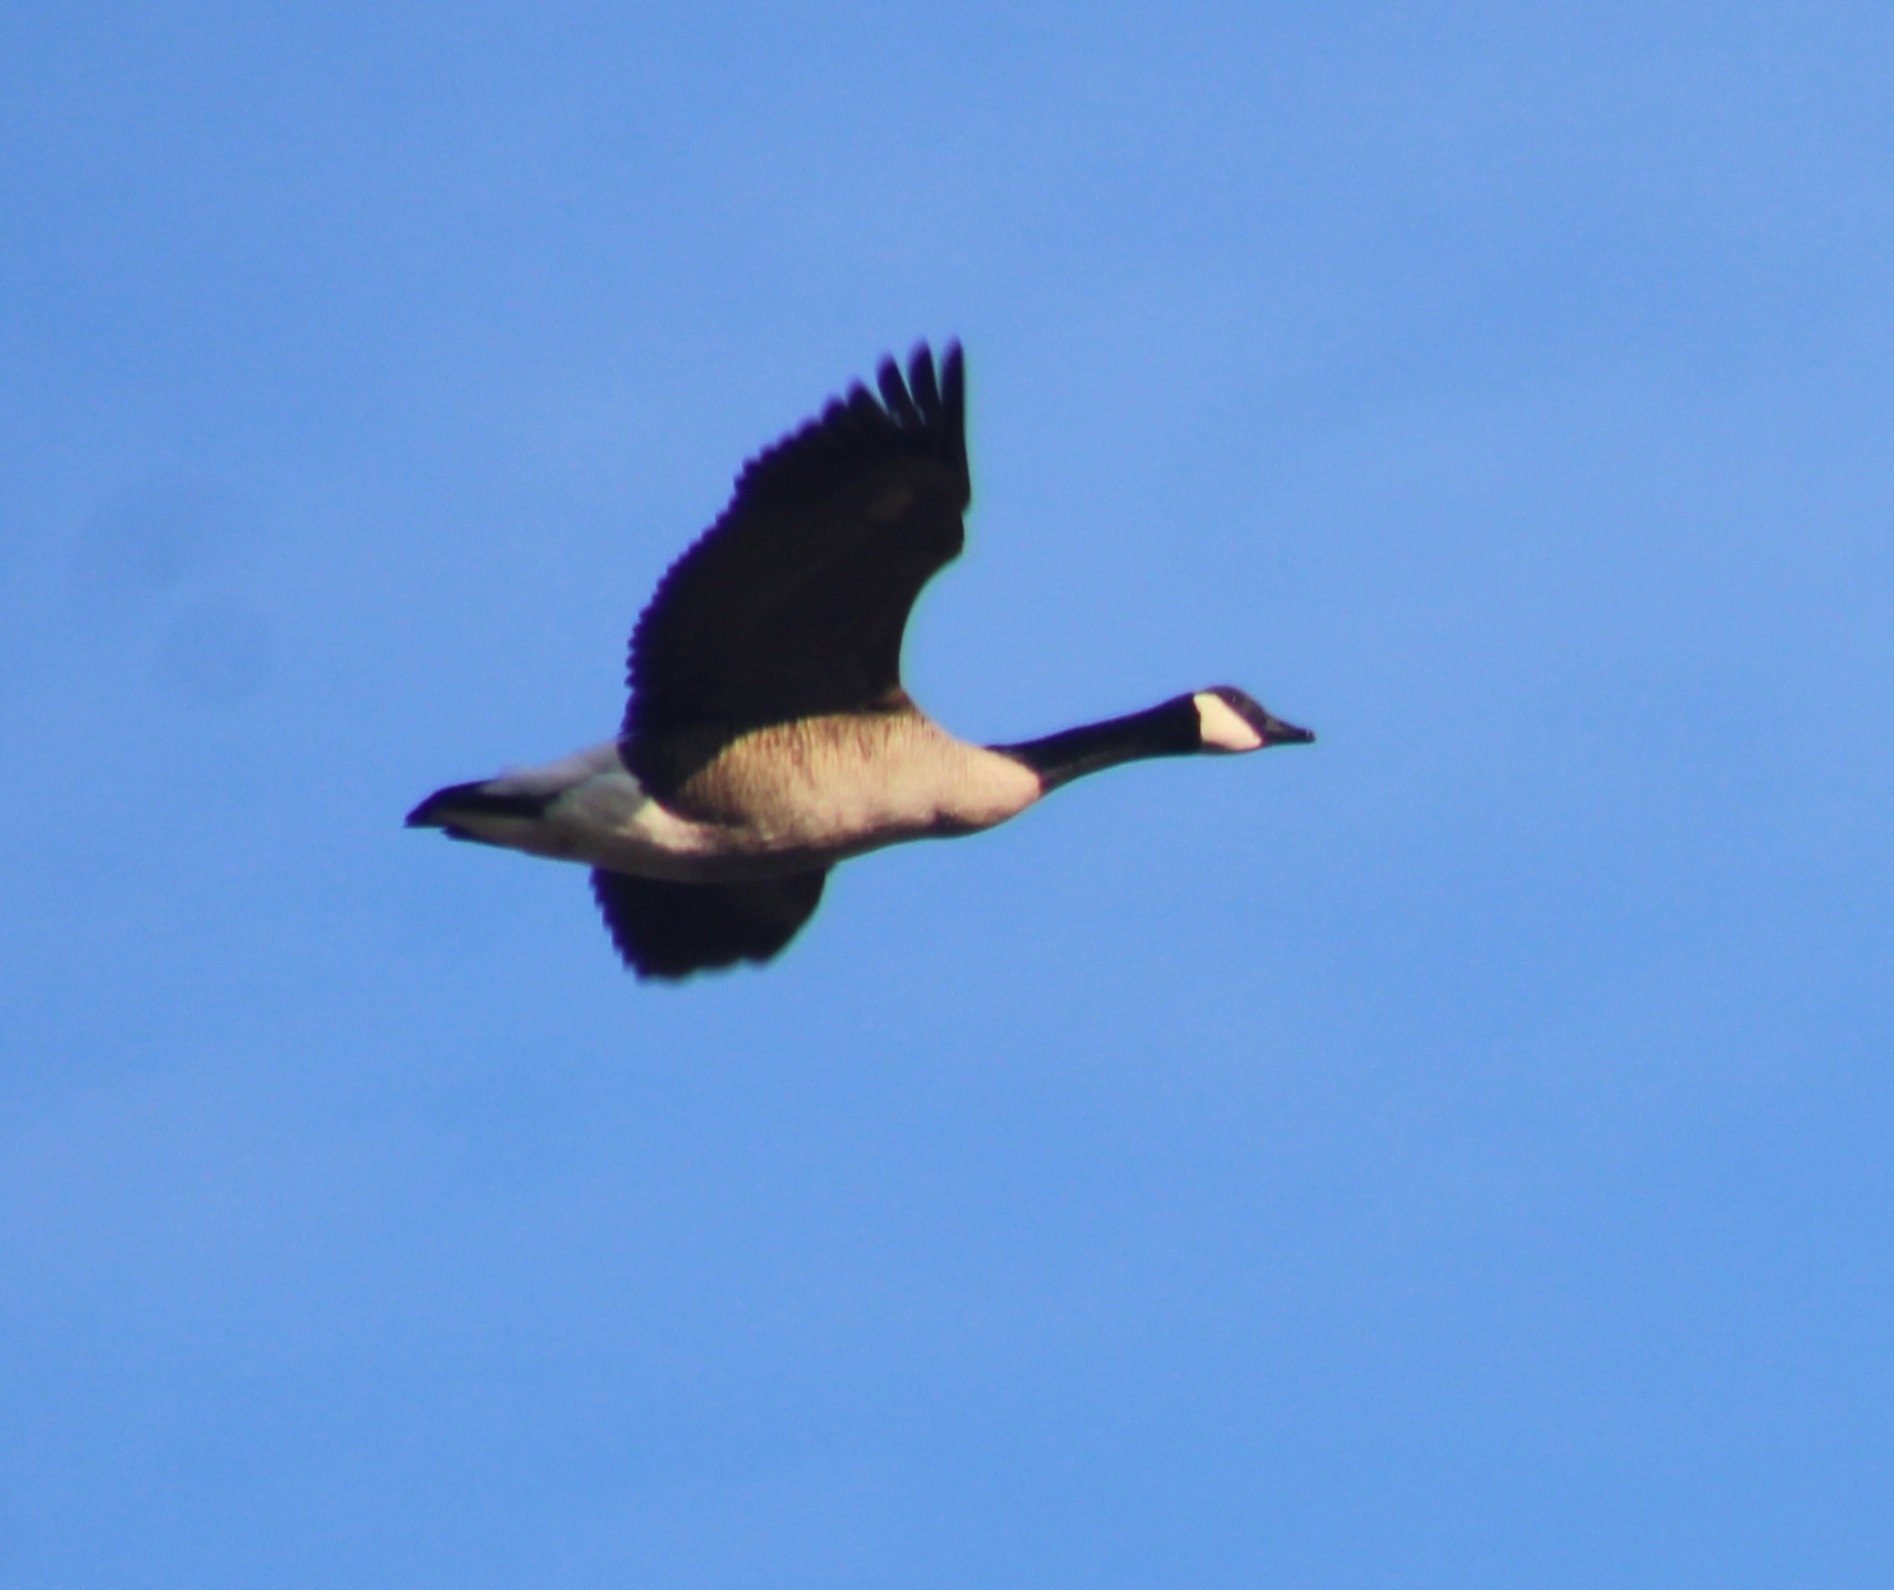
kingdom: Animalia
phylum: Chordata
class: Aves
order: Anseriformes
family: Anatidae
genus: Branta
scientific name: Branta canadensis
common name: Canada goose
